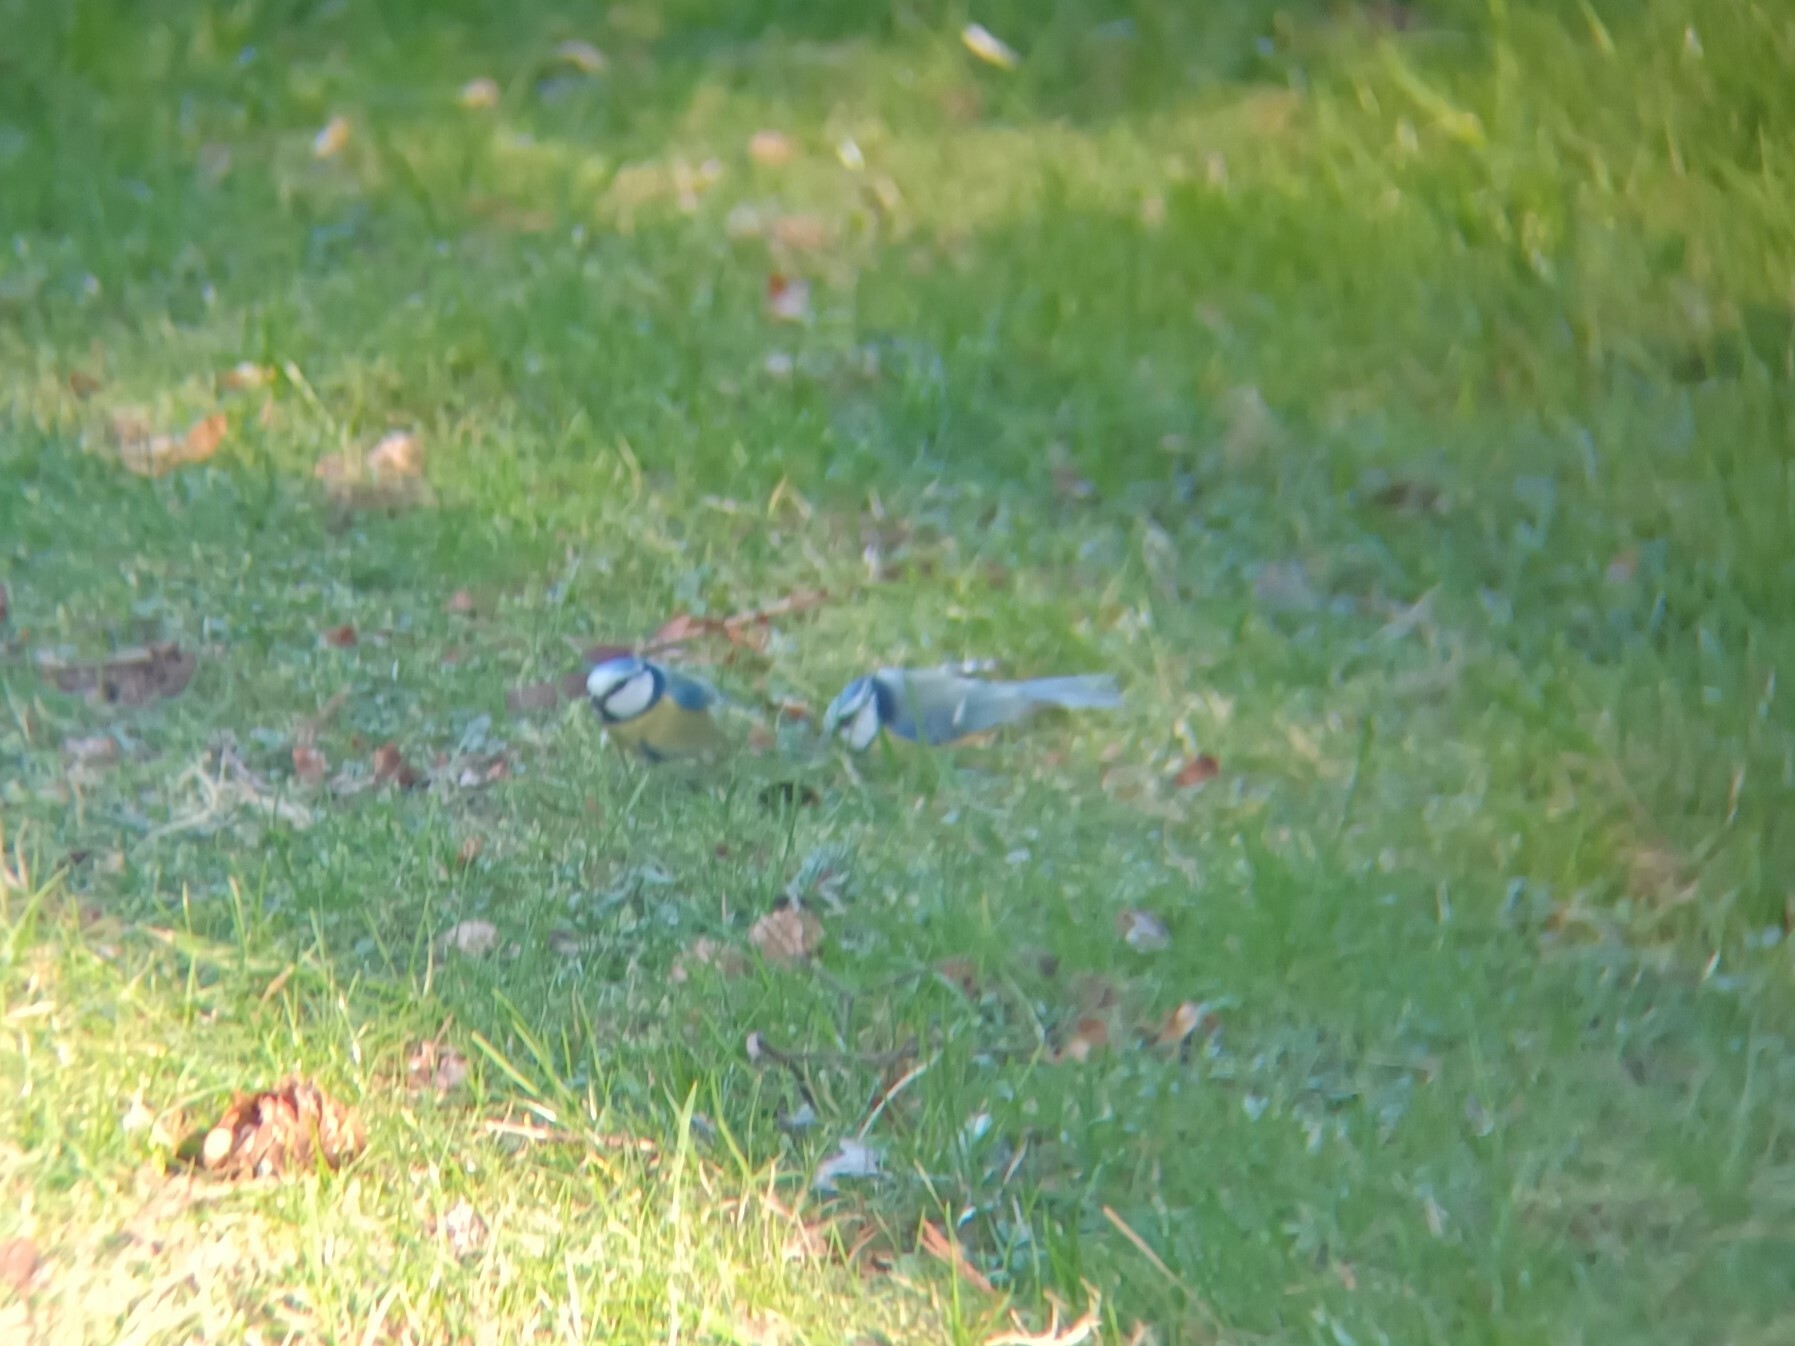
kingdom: Animalia
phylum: Chordata
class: Aves
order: Passeriformes
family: Paridae
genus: Cyanistes
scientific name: Cyanistes caeruleus
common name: Eurasian blue tit
